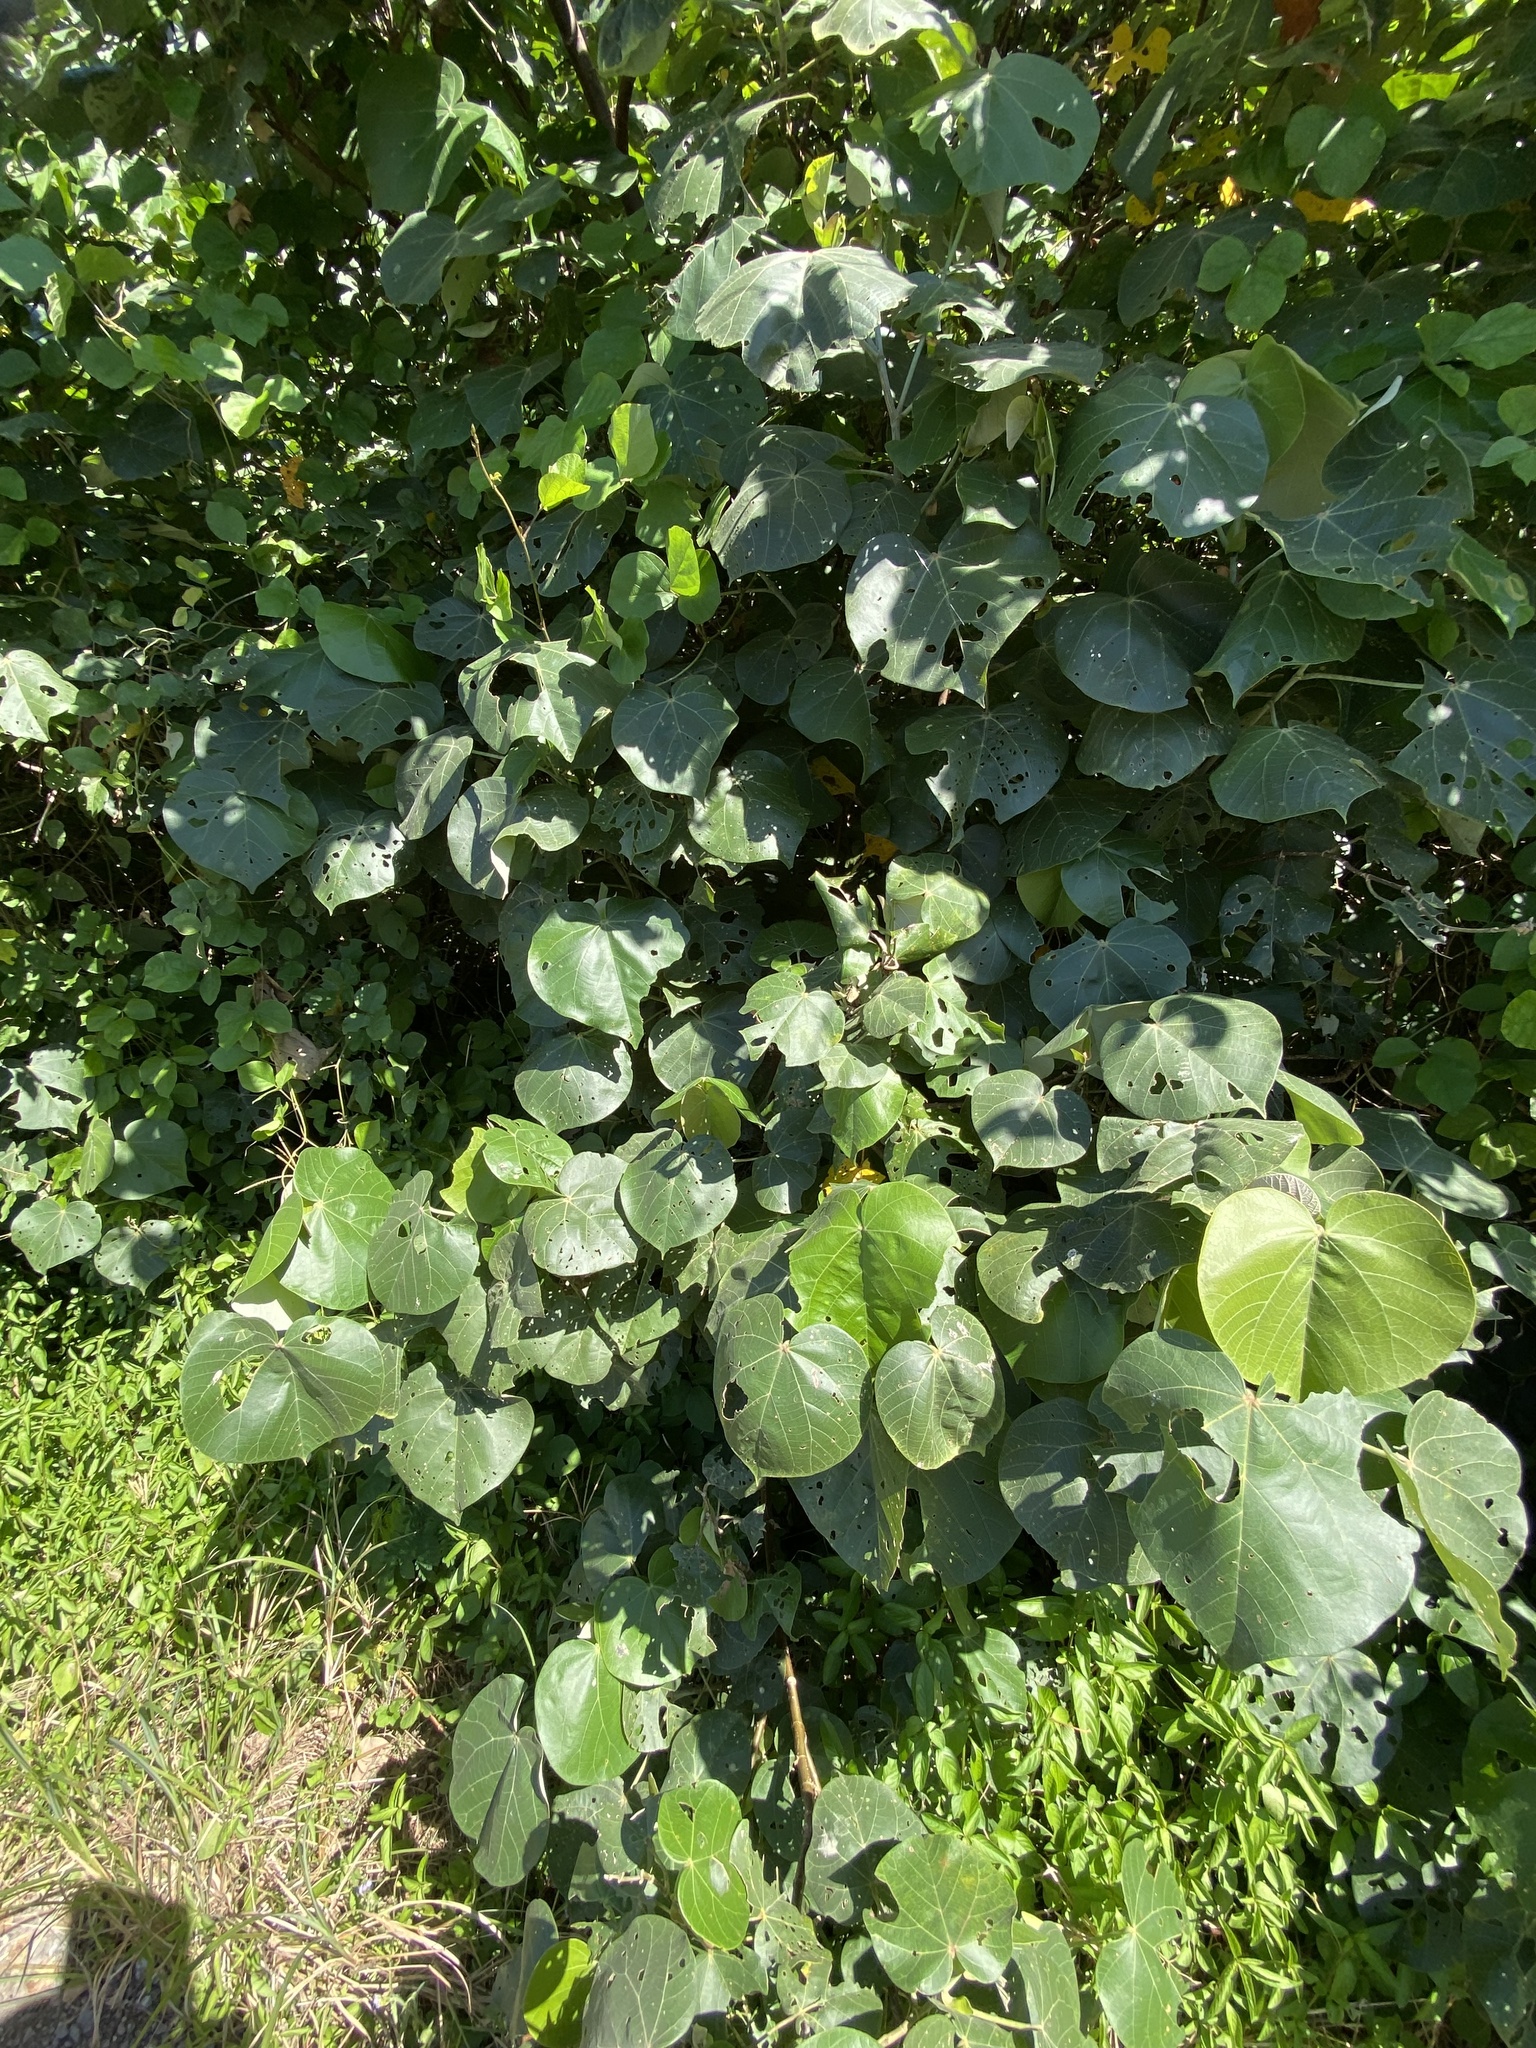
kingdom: Plantae
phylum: Tracheophyta
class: Magnoliopsida
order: Malvales
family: Malvaceae
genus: Talipariti
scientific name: Talipariti tiliaceum
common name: Sea hibiscus
